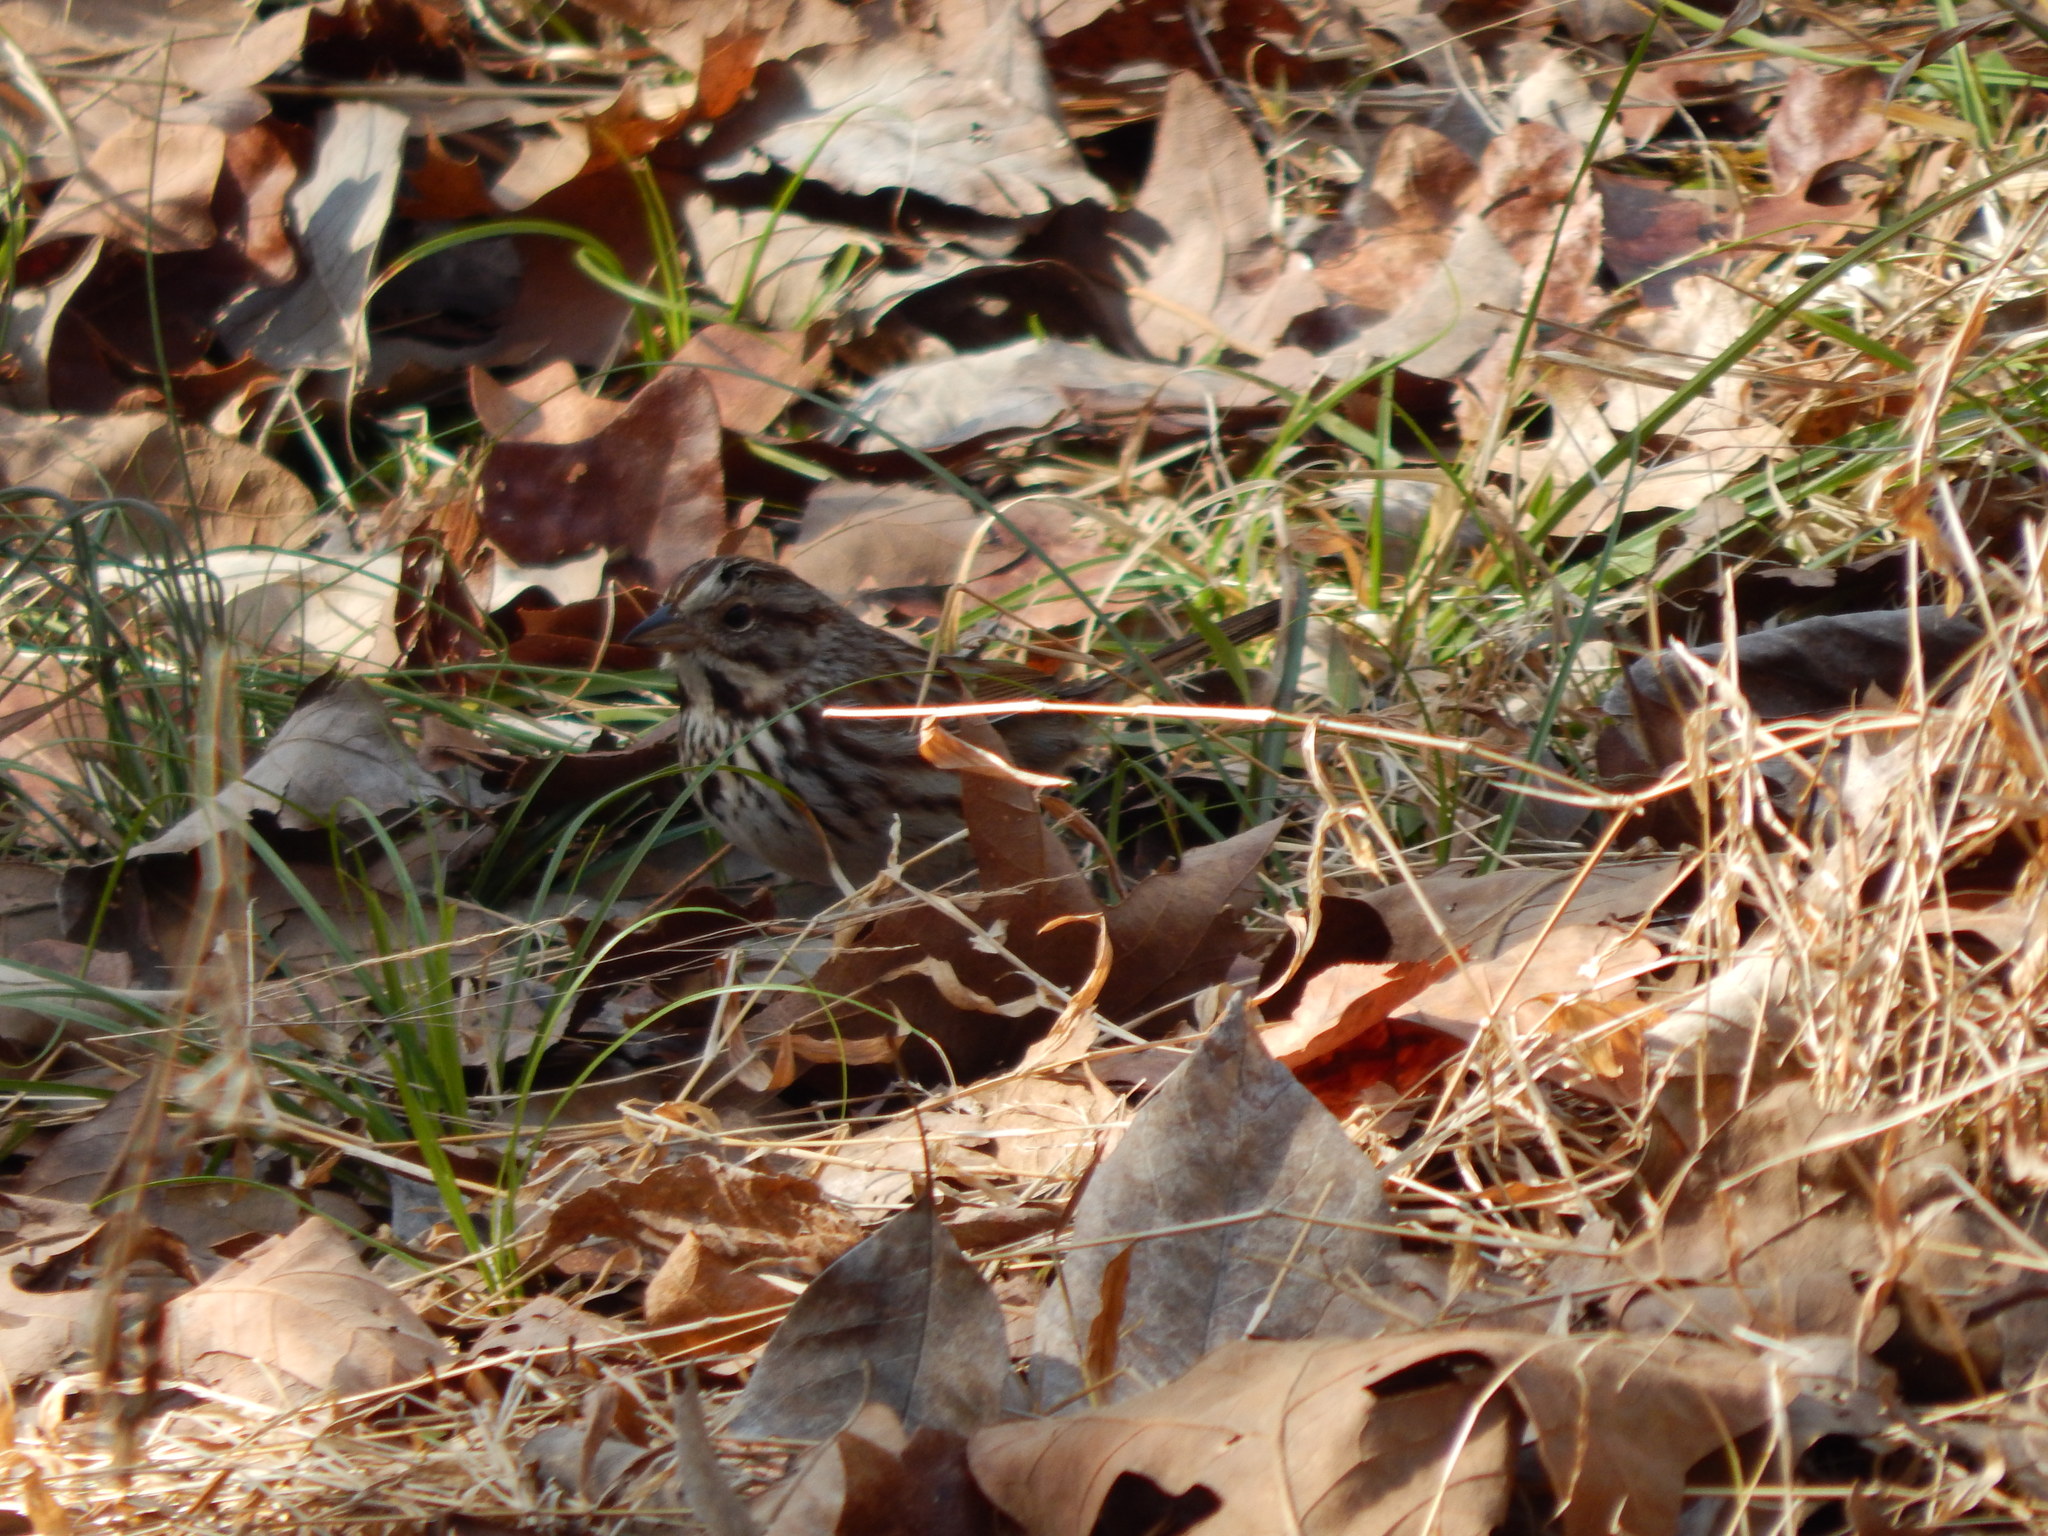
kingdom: Animalia
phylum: Chordata
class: Aves
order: Passeriformes
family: Passerellidae
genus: Melospiza
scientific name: Melospiza melodia
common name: Song sparrow
